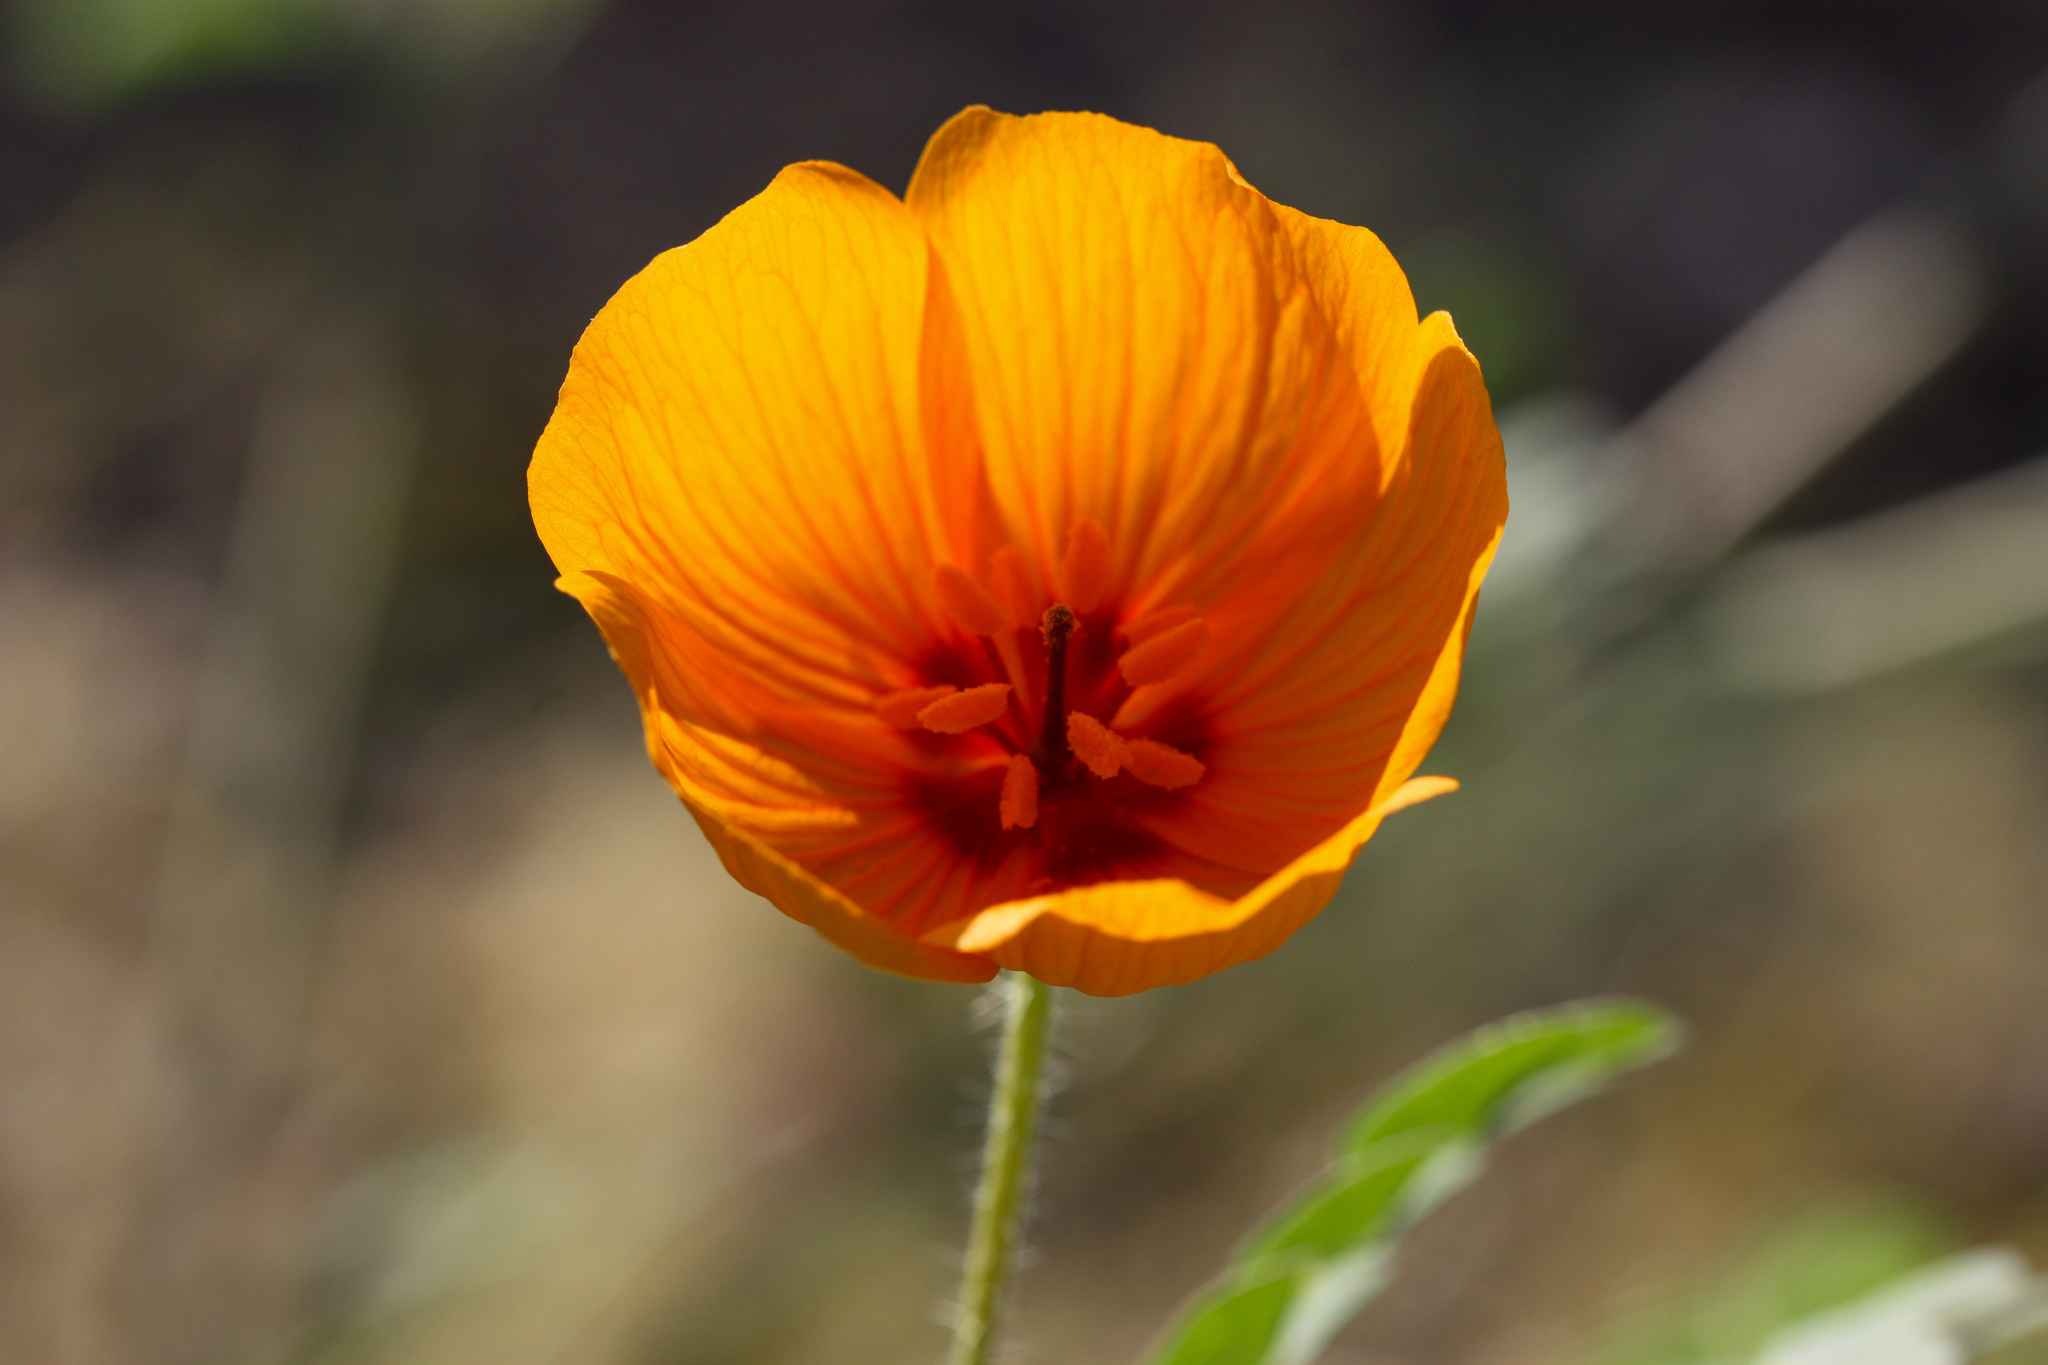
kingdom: Plantae
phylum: Tracheophyta
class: Magnoliopsida
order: Zygophyllales
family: Zygophyllaceae
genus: Kallstroemia
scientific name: Kallstroemia grandiflora
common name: Arizona-poppy
